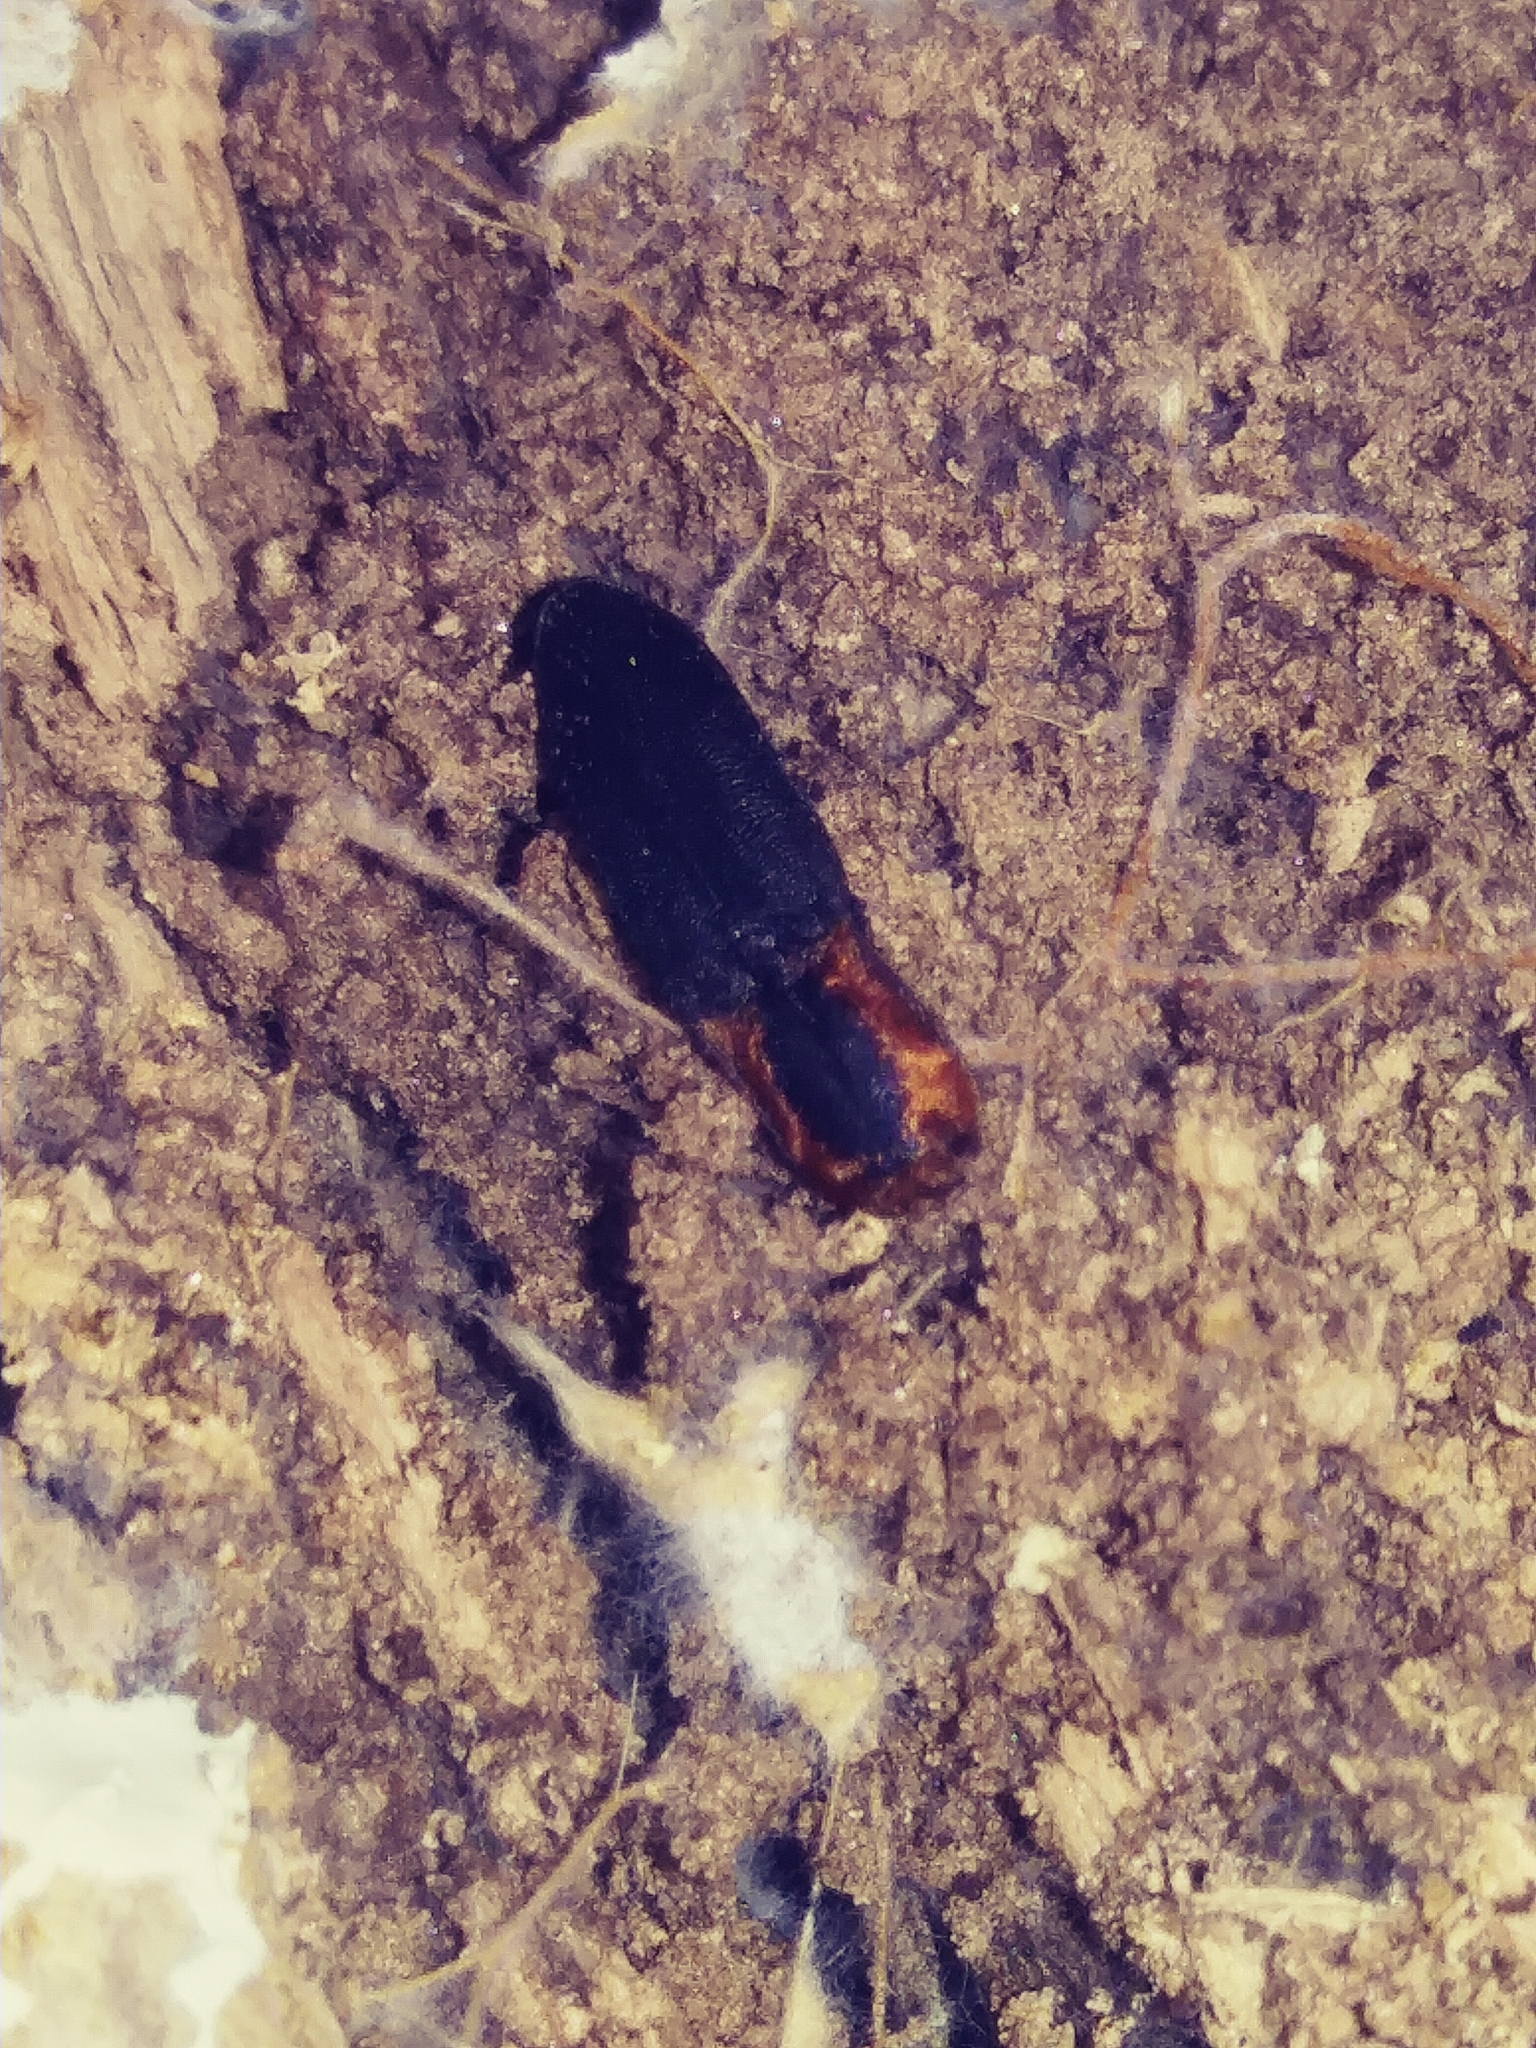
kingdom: Animalia
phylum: Arthropoda
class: Insecta
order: Coleoptera
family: Elateridae
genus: Lacon
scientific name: Lacon discoideus
